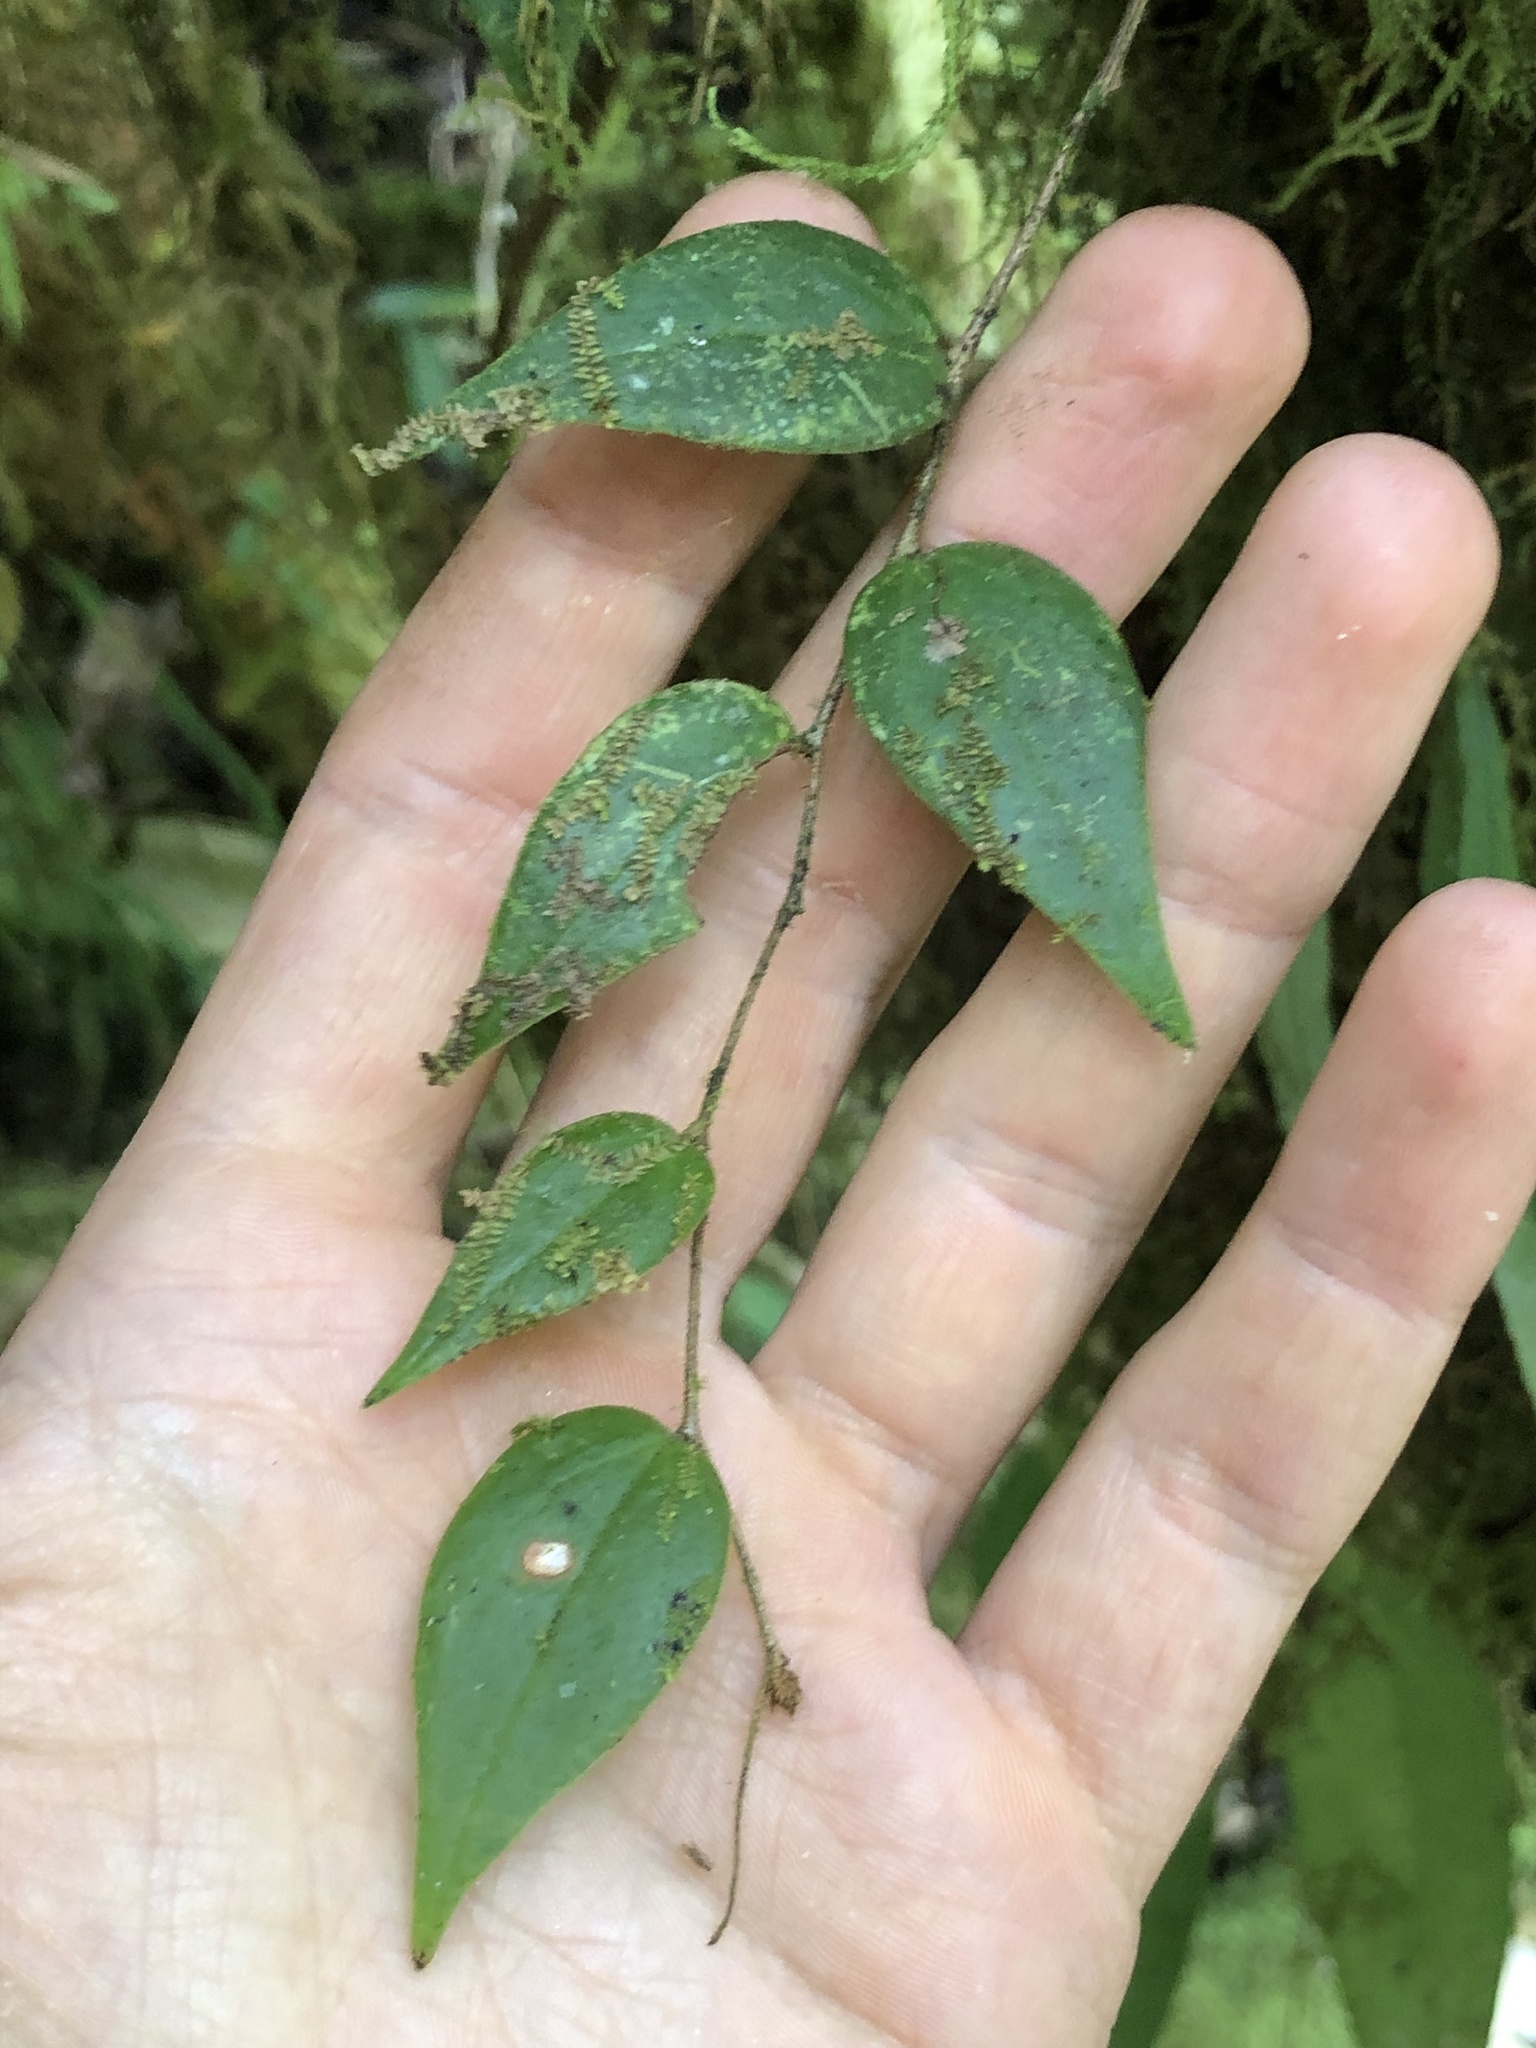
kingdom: Plantae
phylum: Tracheophyta
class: Magnoliopsida
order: Ericales
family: Ericaceae
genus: Sphyrospermum
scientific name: Sphyrospermum buxifolium
